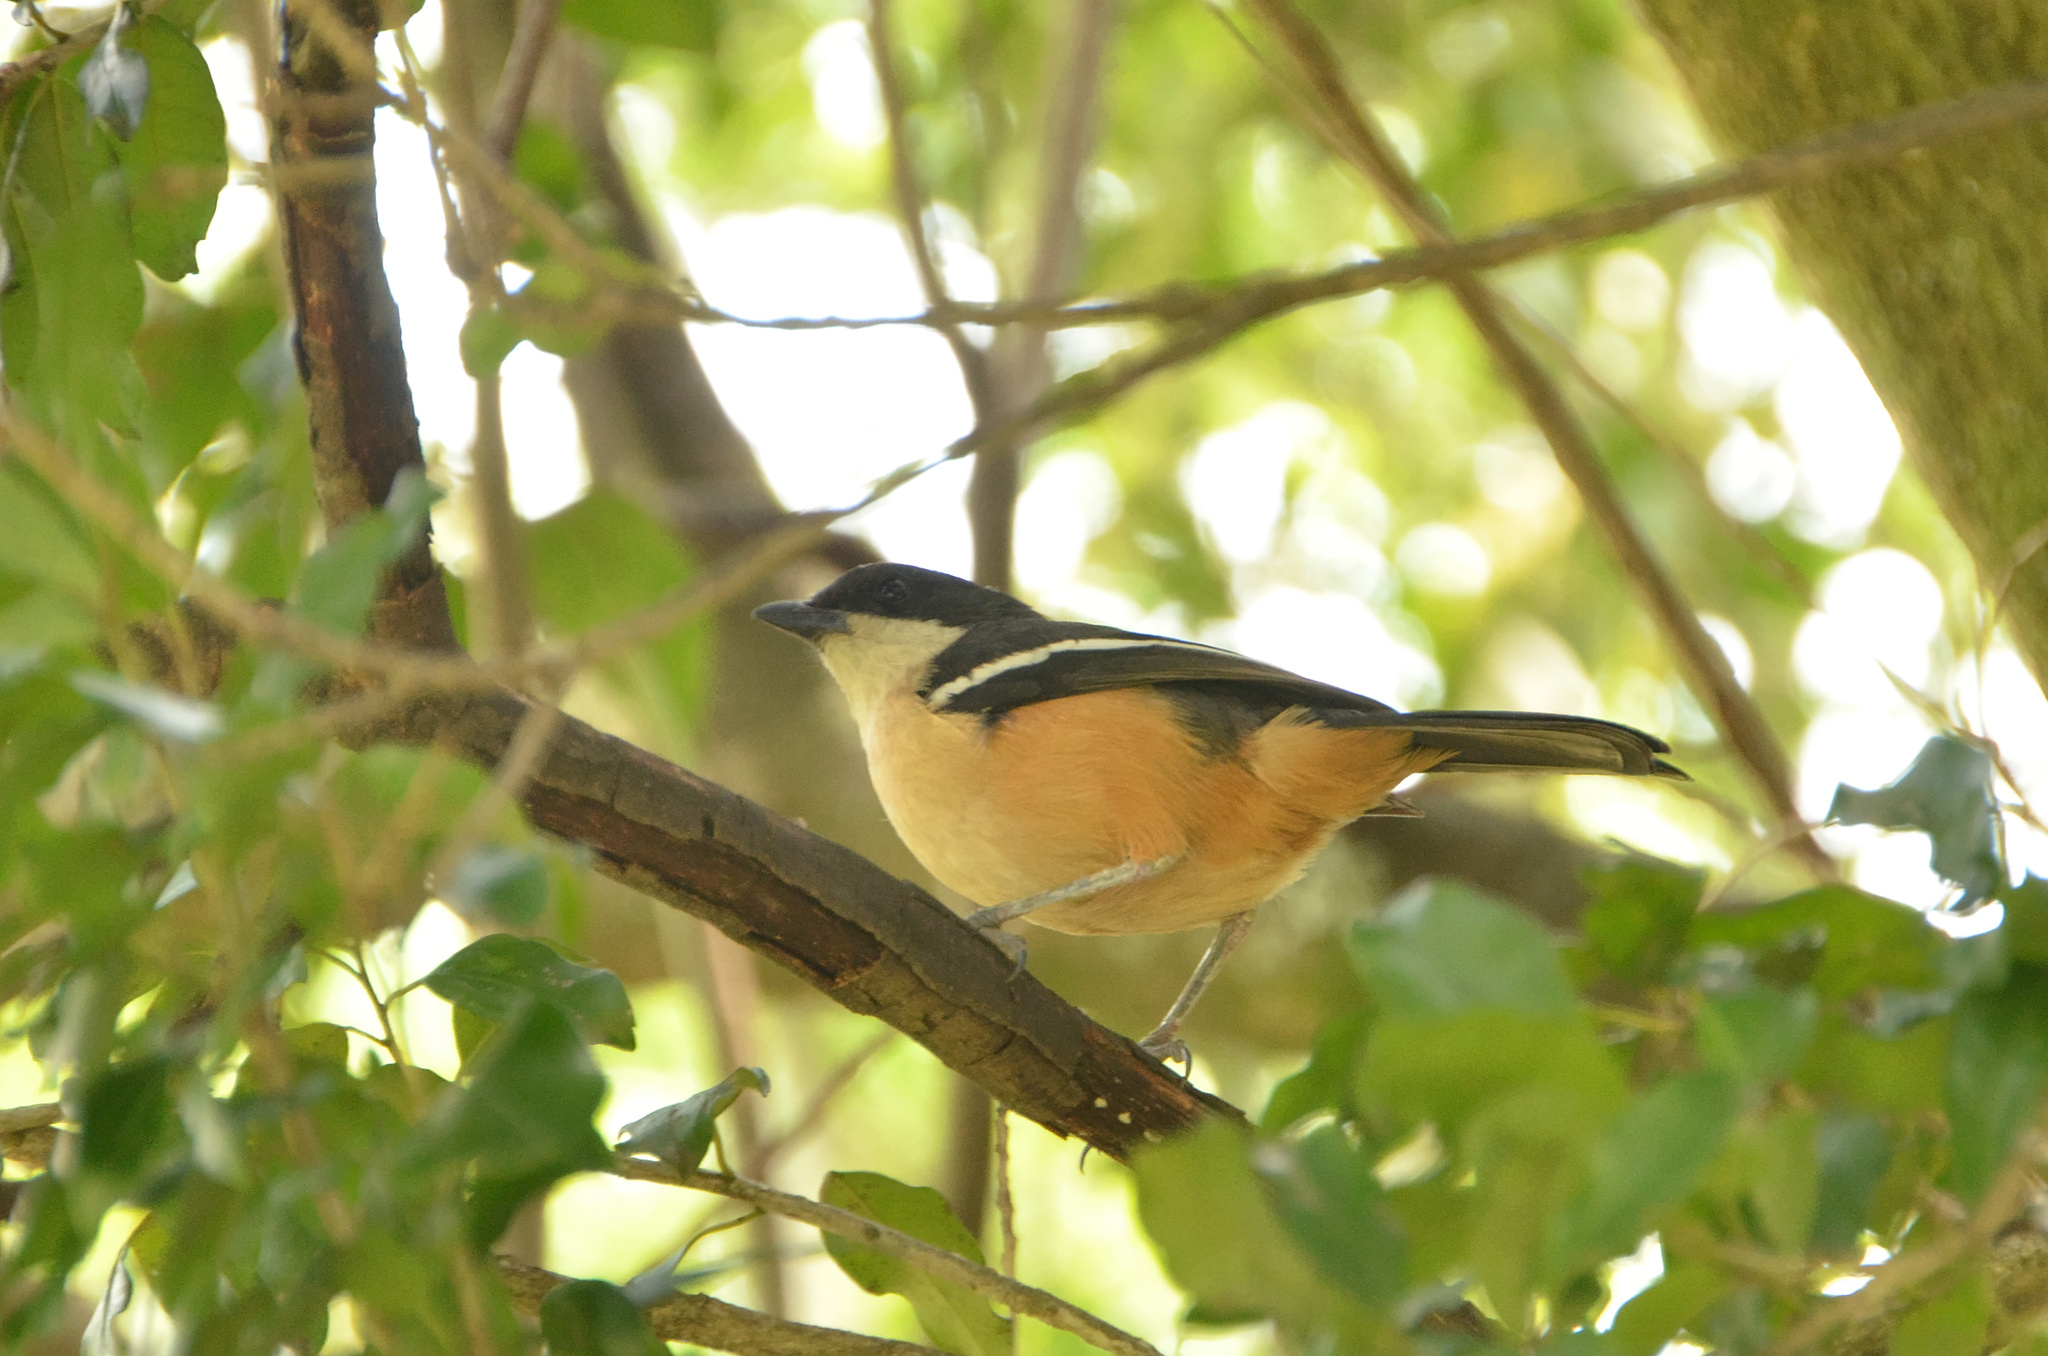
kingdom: Animalia
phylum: Chordata
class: Aves
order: Passeriformes
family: Malaconotidae
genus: Laniarius
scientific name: Laniarius ferrugineus
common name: Southern boubou
